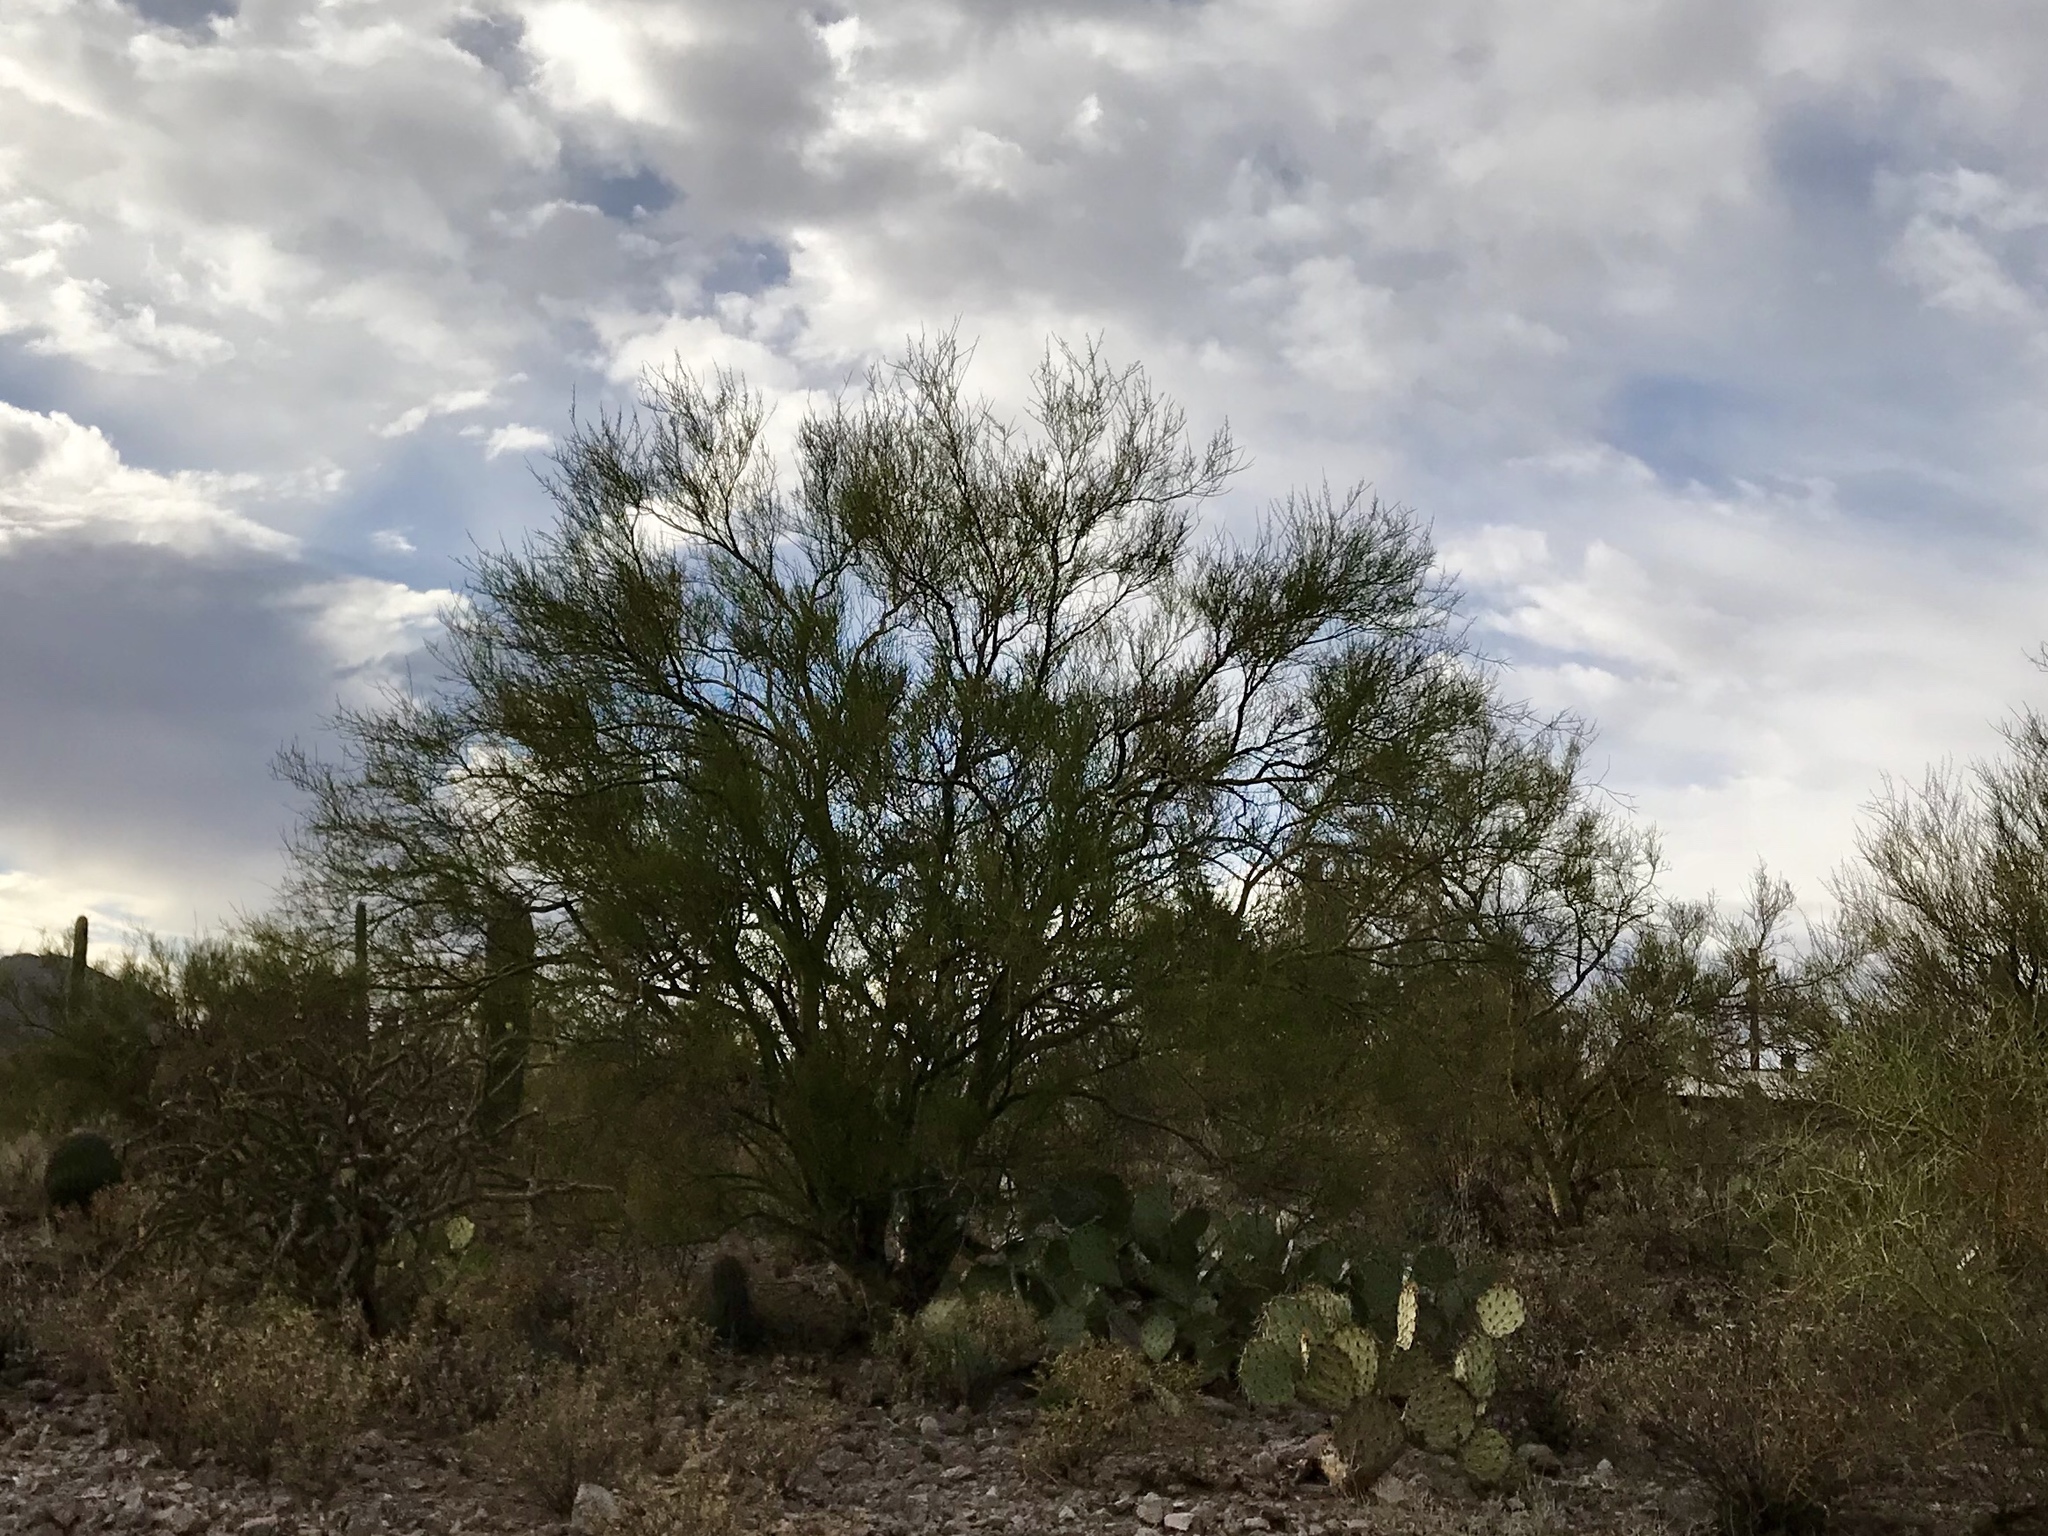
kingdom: Plantae
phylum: Tracheophyta
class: Magnoliopsida
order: Fabales
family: Fabaceae
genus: Parkinsonia
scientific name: Parkinsonia microphylla
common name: Yellow paloverde
